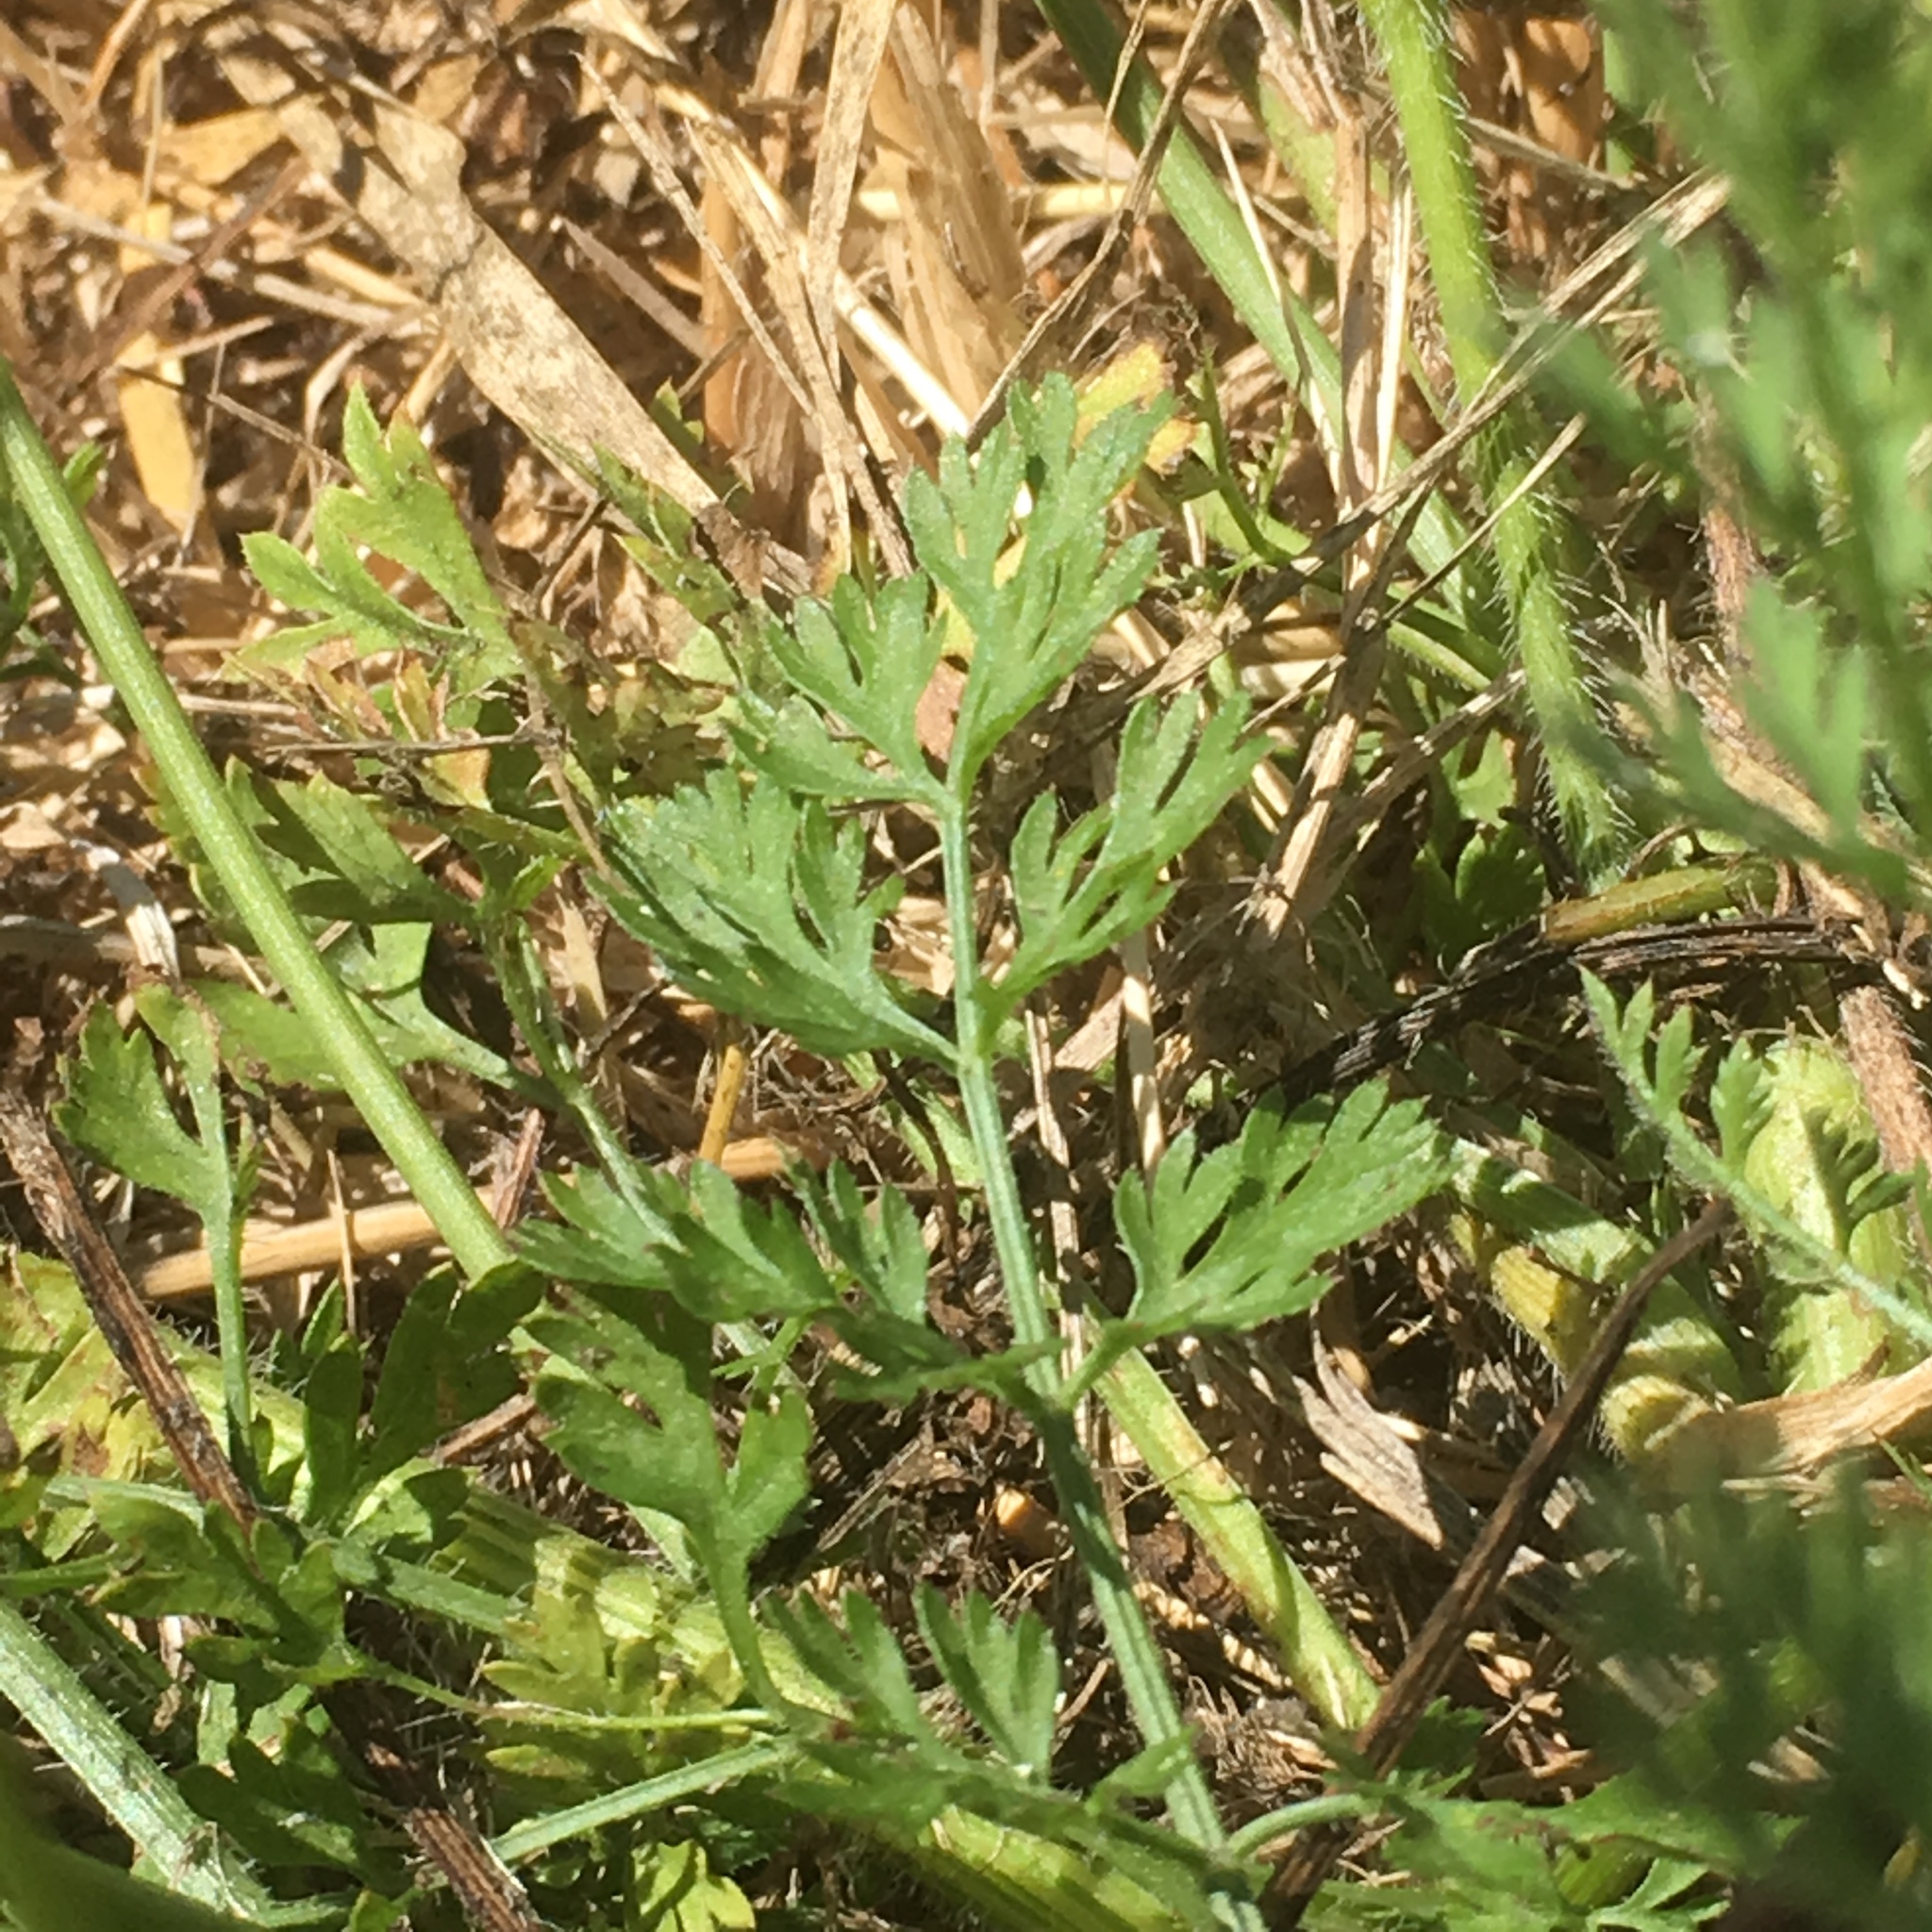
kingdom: Plantae
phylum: Tracheophyta
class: Magnoliopsida
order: Apiales
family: Apiaceae
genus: Daucus
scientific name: Daucus carota
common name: Wild carrot
